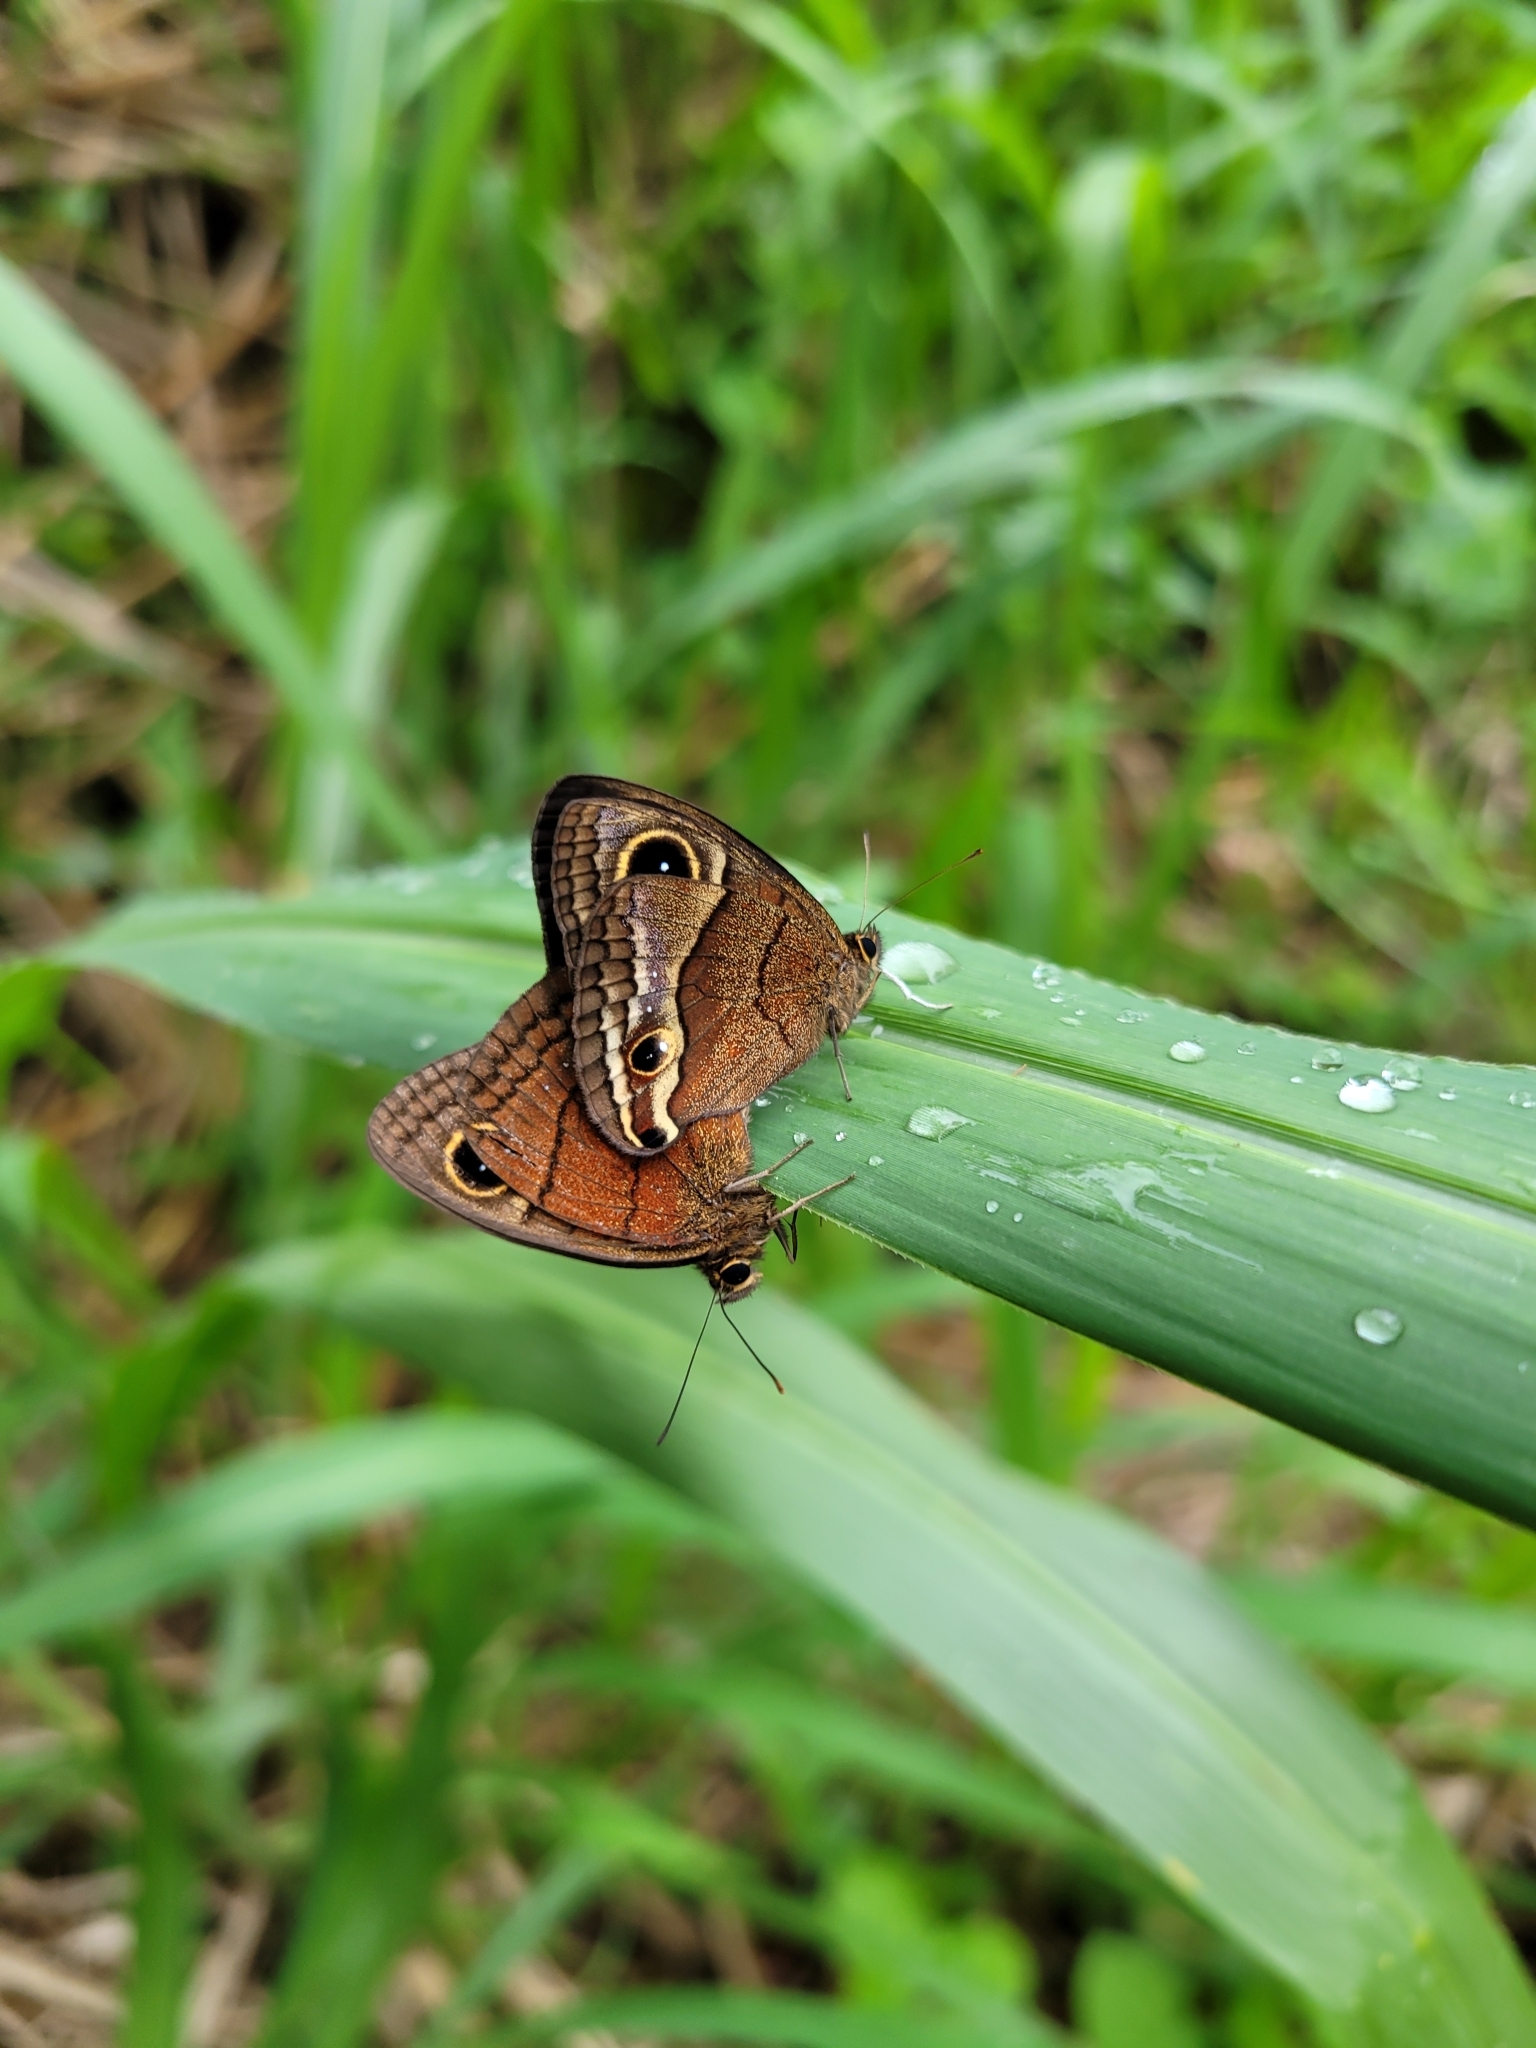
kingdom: Animalia
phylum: Arthropoda
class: Insecta
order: Lepidoptera
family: Nymphalidae
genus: Calisto
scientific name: Calisto nubila
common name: Puerto rican calisto
